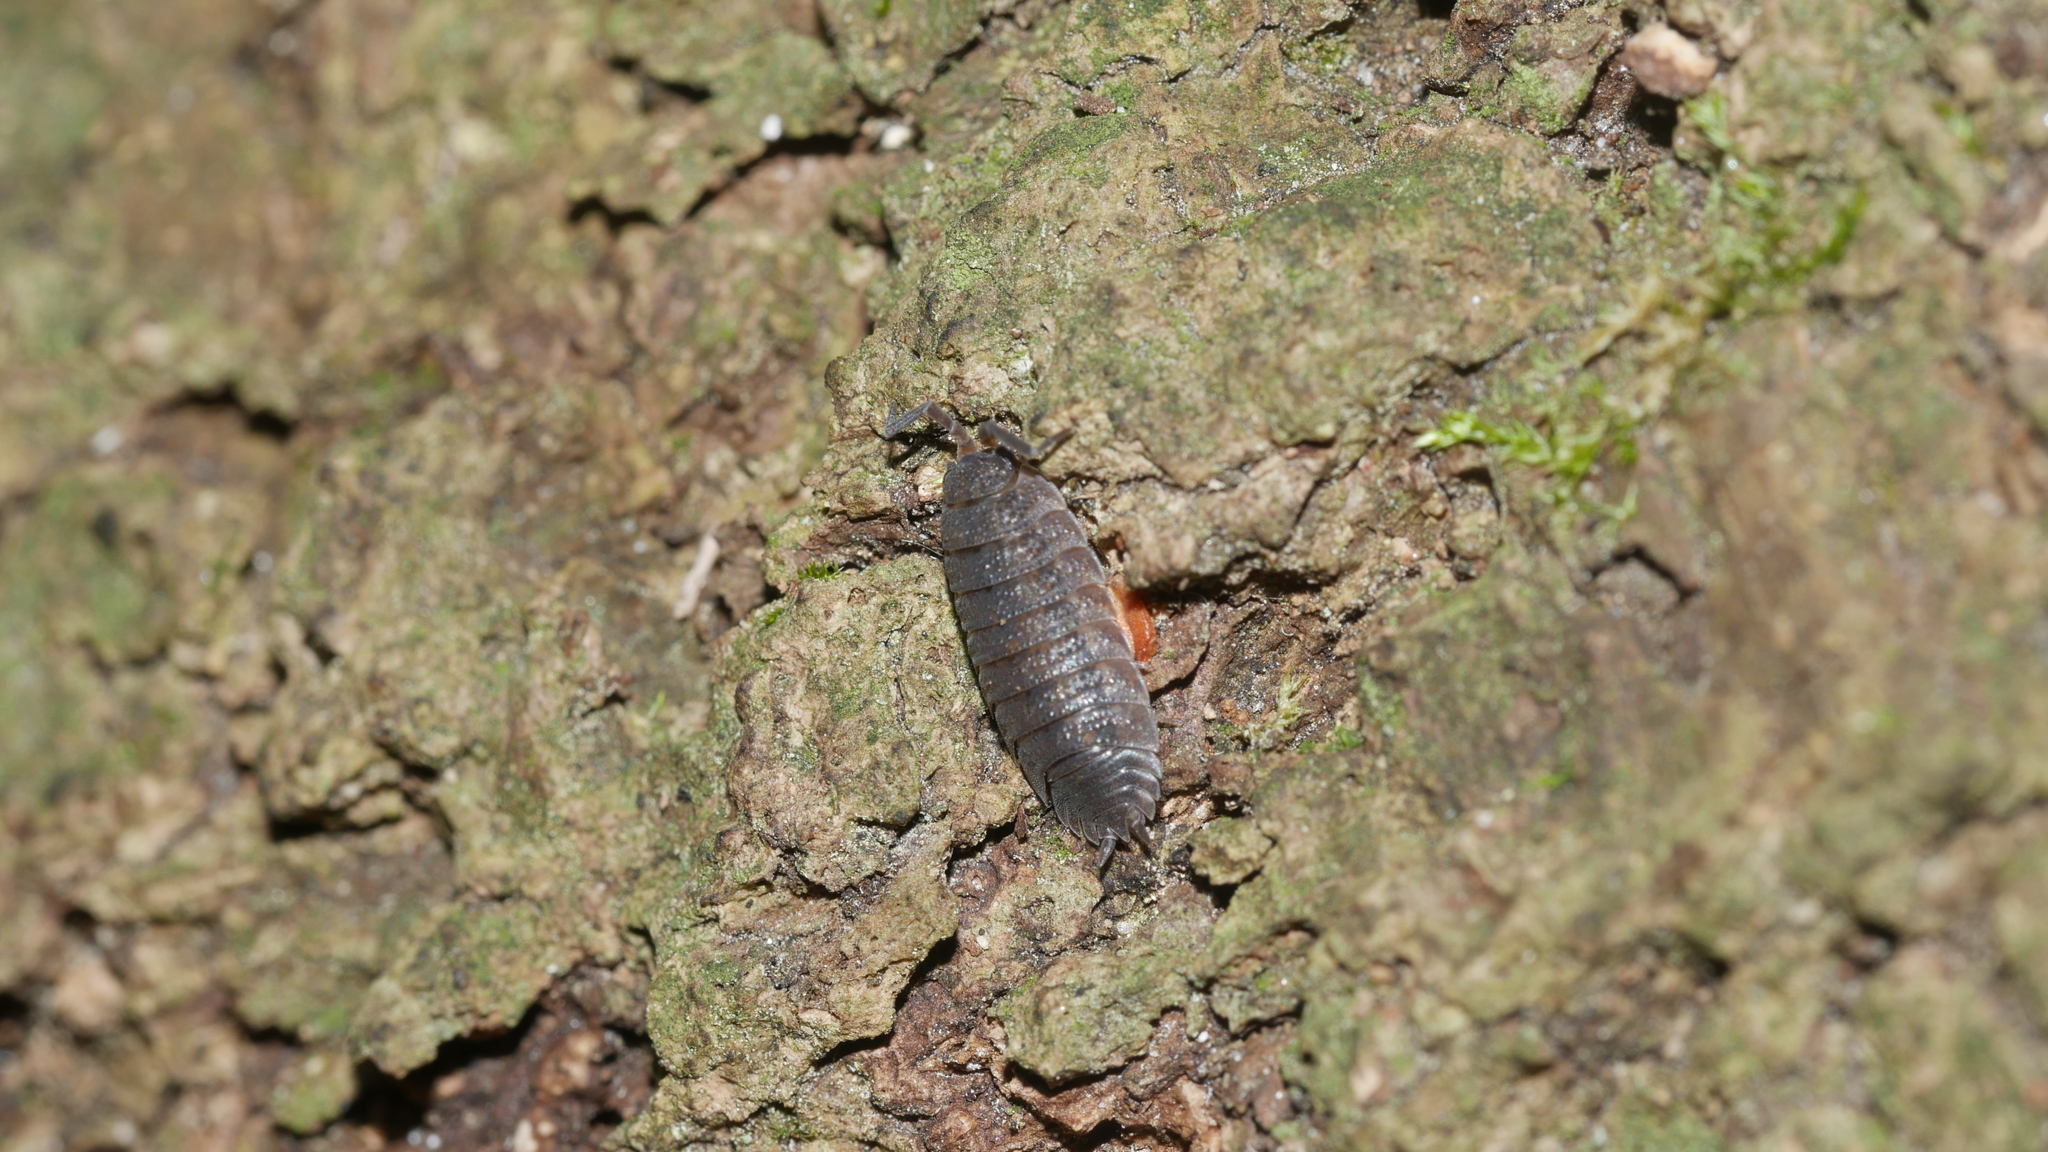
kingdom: Animalia
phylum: Arthropoda
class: Malacostraca
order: Isopoda
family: Porcellionidae
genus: Porcellio
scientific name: Porcellio scaber
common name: Common rough woodlouse
